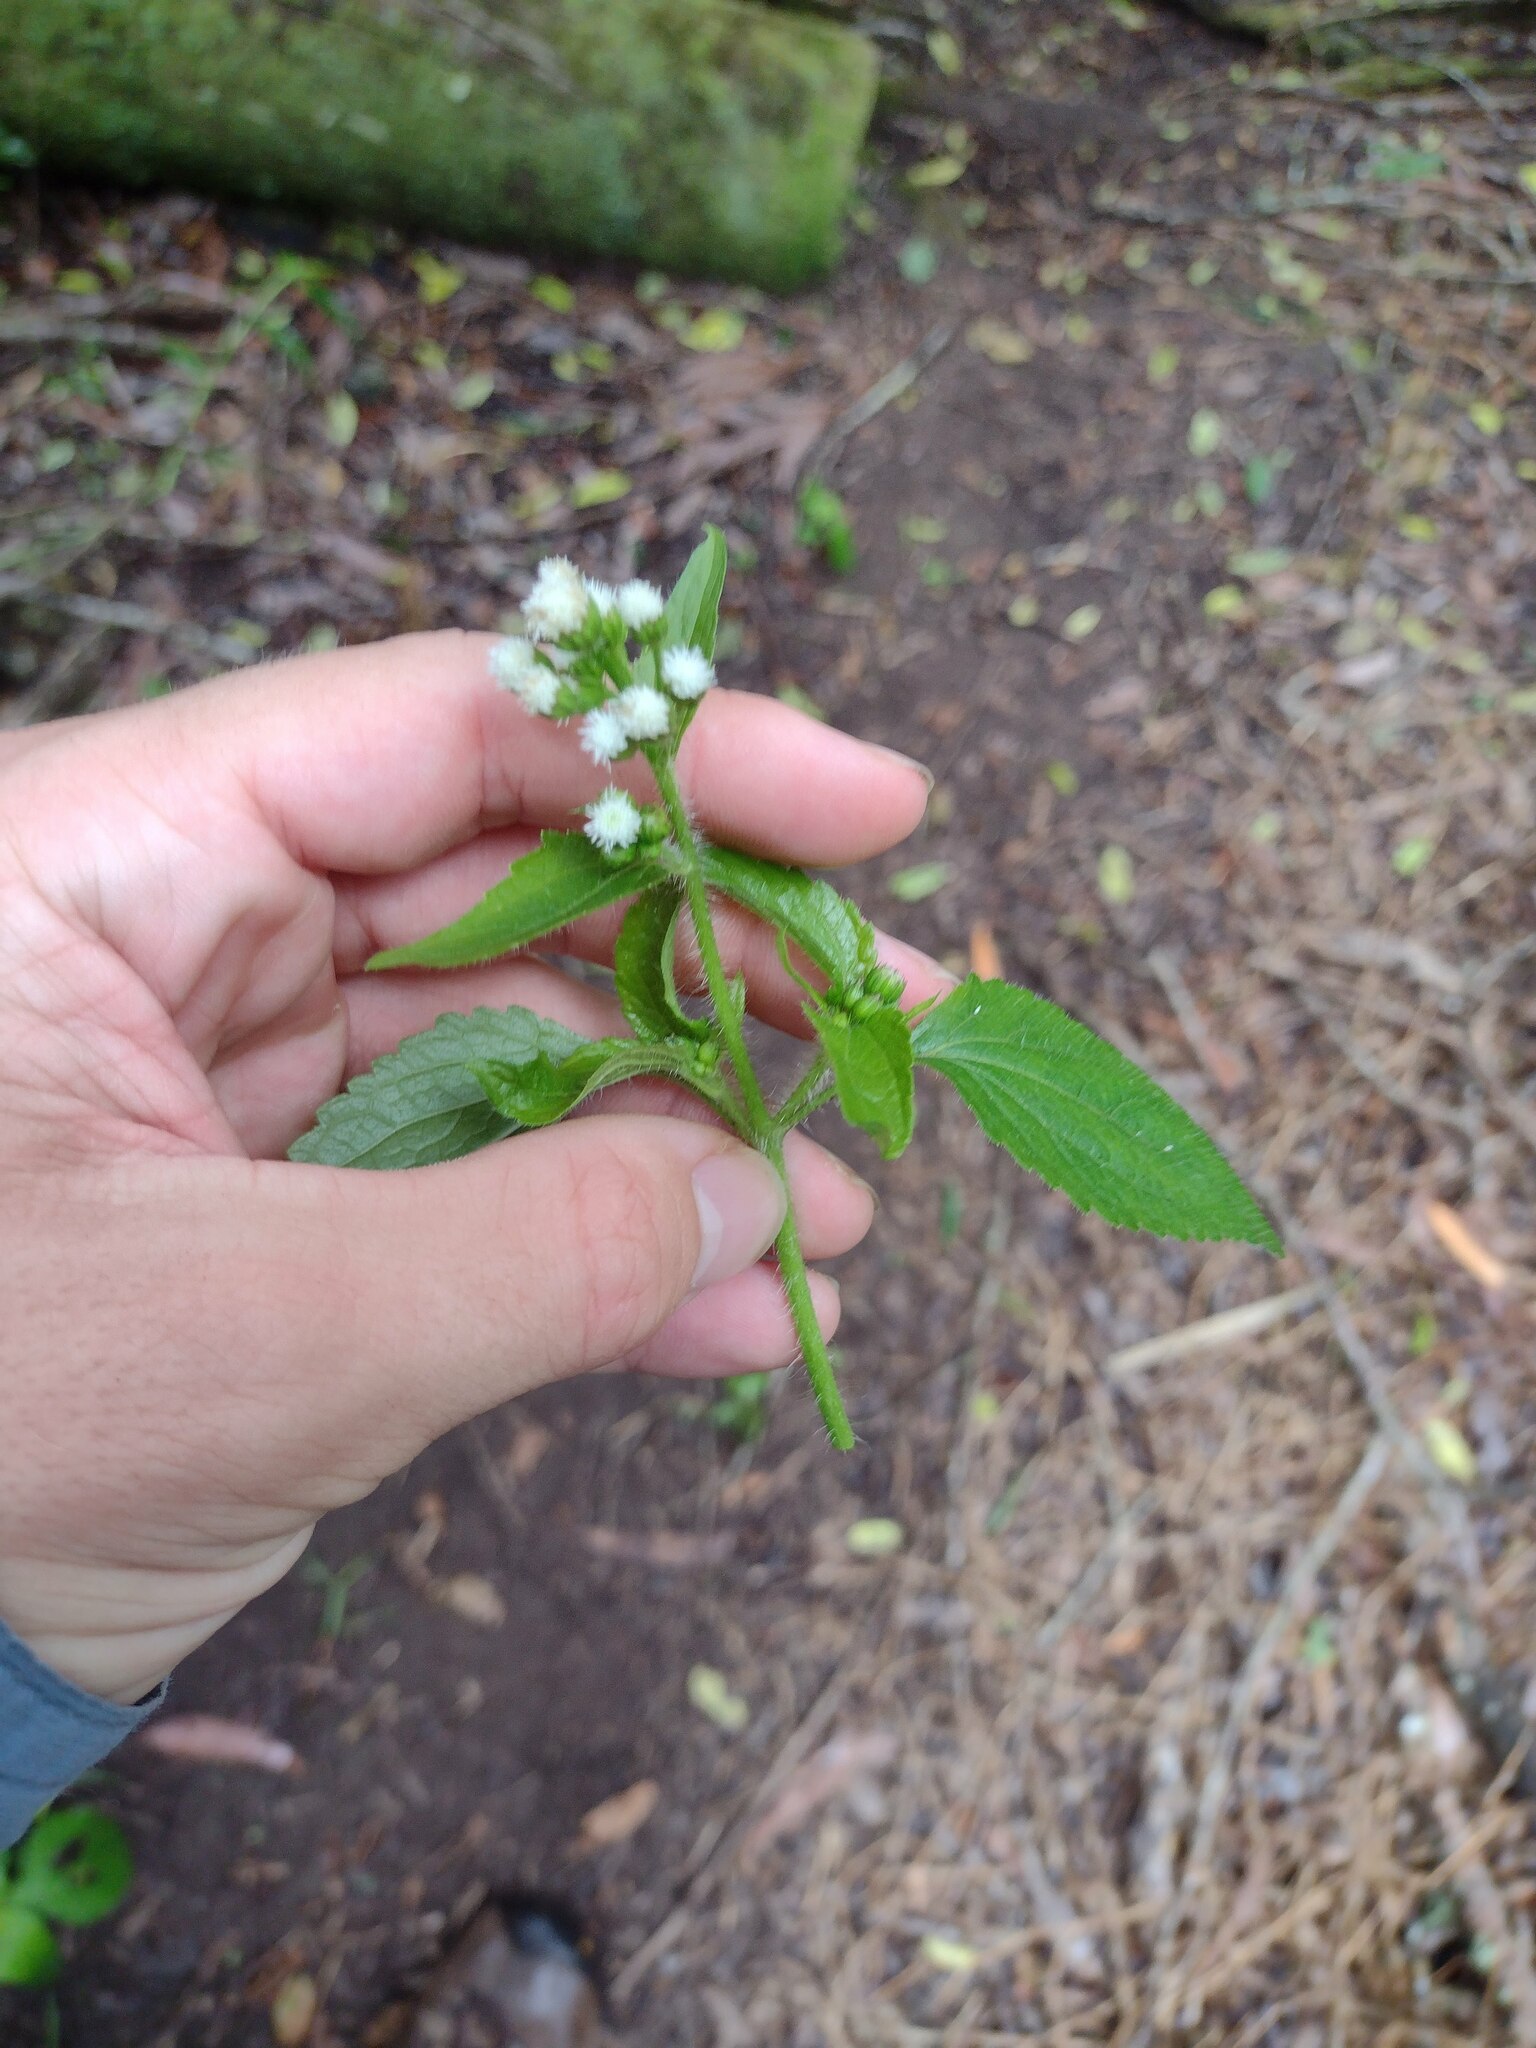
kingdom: Plantae
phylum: Tracheophyta
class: Magnoliopsida
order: Asterales
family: Asteraceae
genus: Ageratum
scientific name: Ageratum conyzoides
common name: Tropical whiteweed
